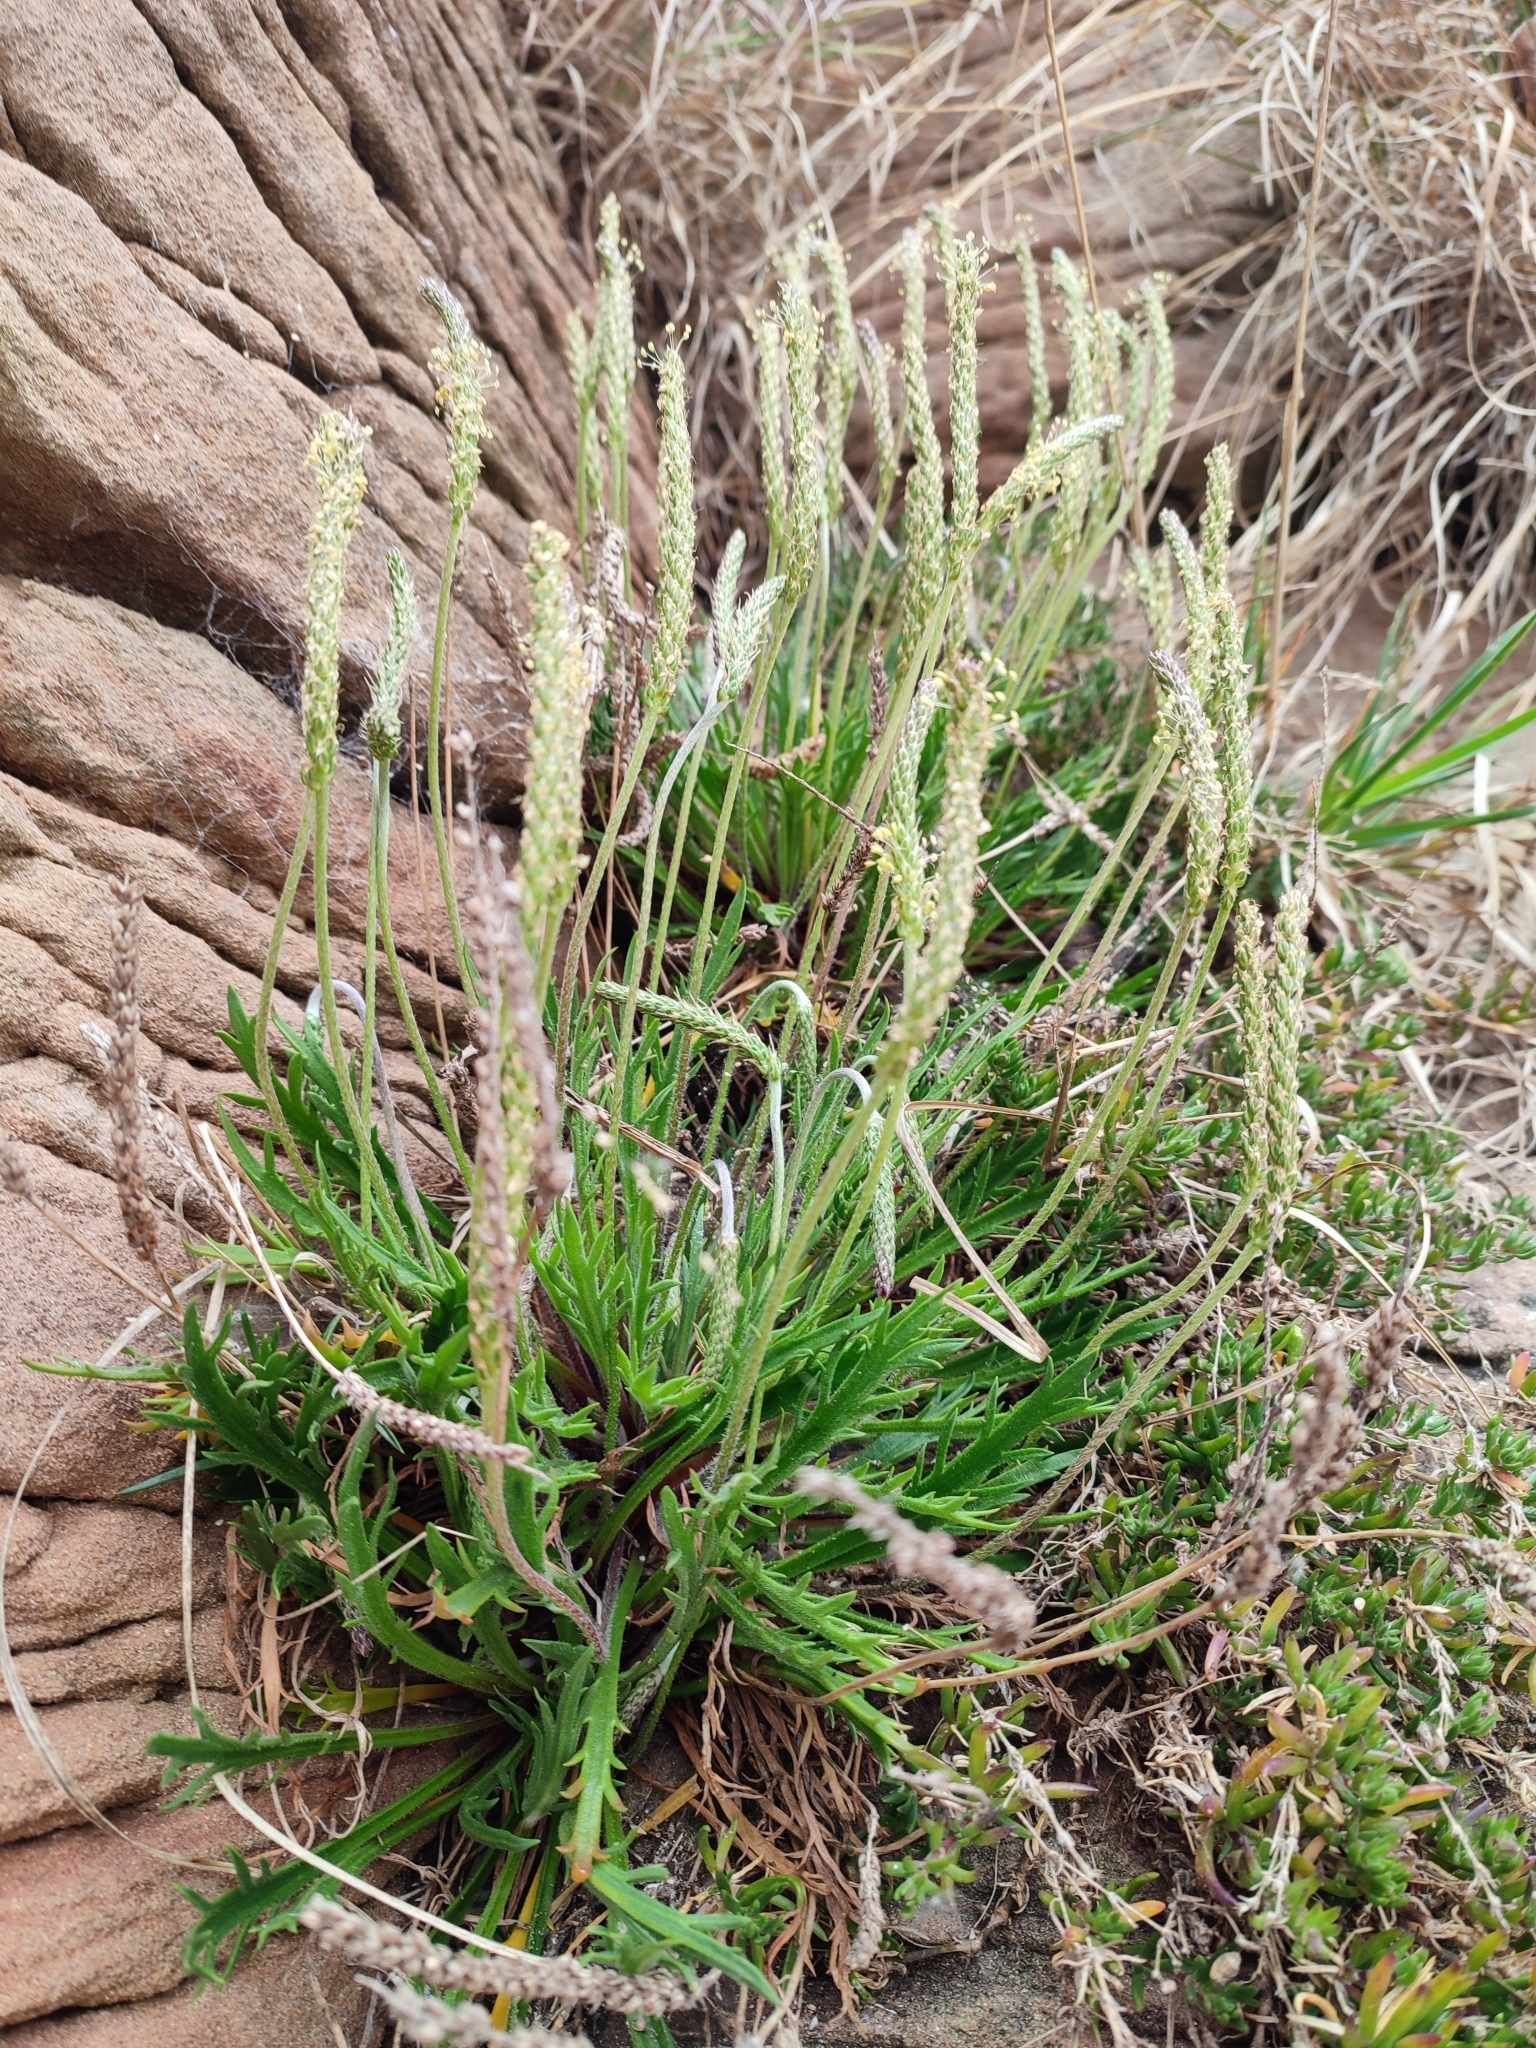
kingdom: Plantae
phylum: Tracheophyta
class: Magnoliopsida
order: Lamiales
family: Plantaginaceae
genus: Plantago
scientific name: Plantago coronopus
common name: Buck's-horn plantain
